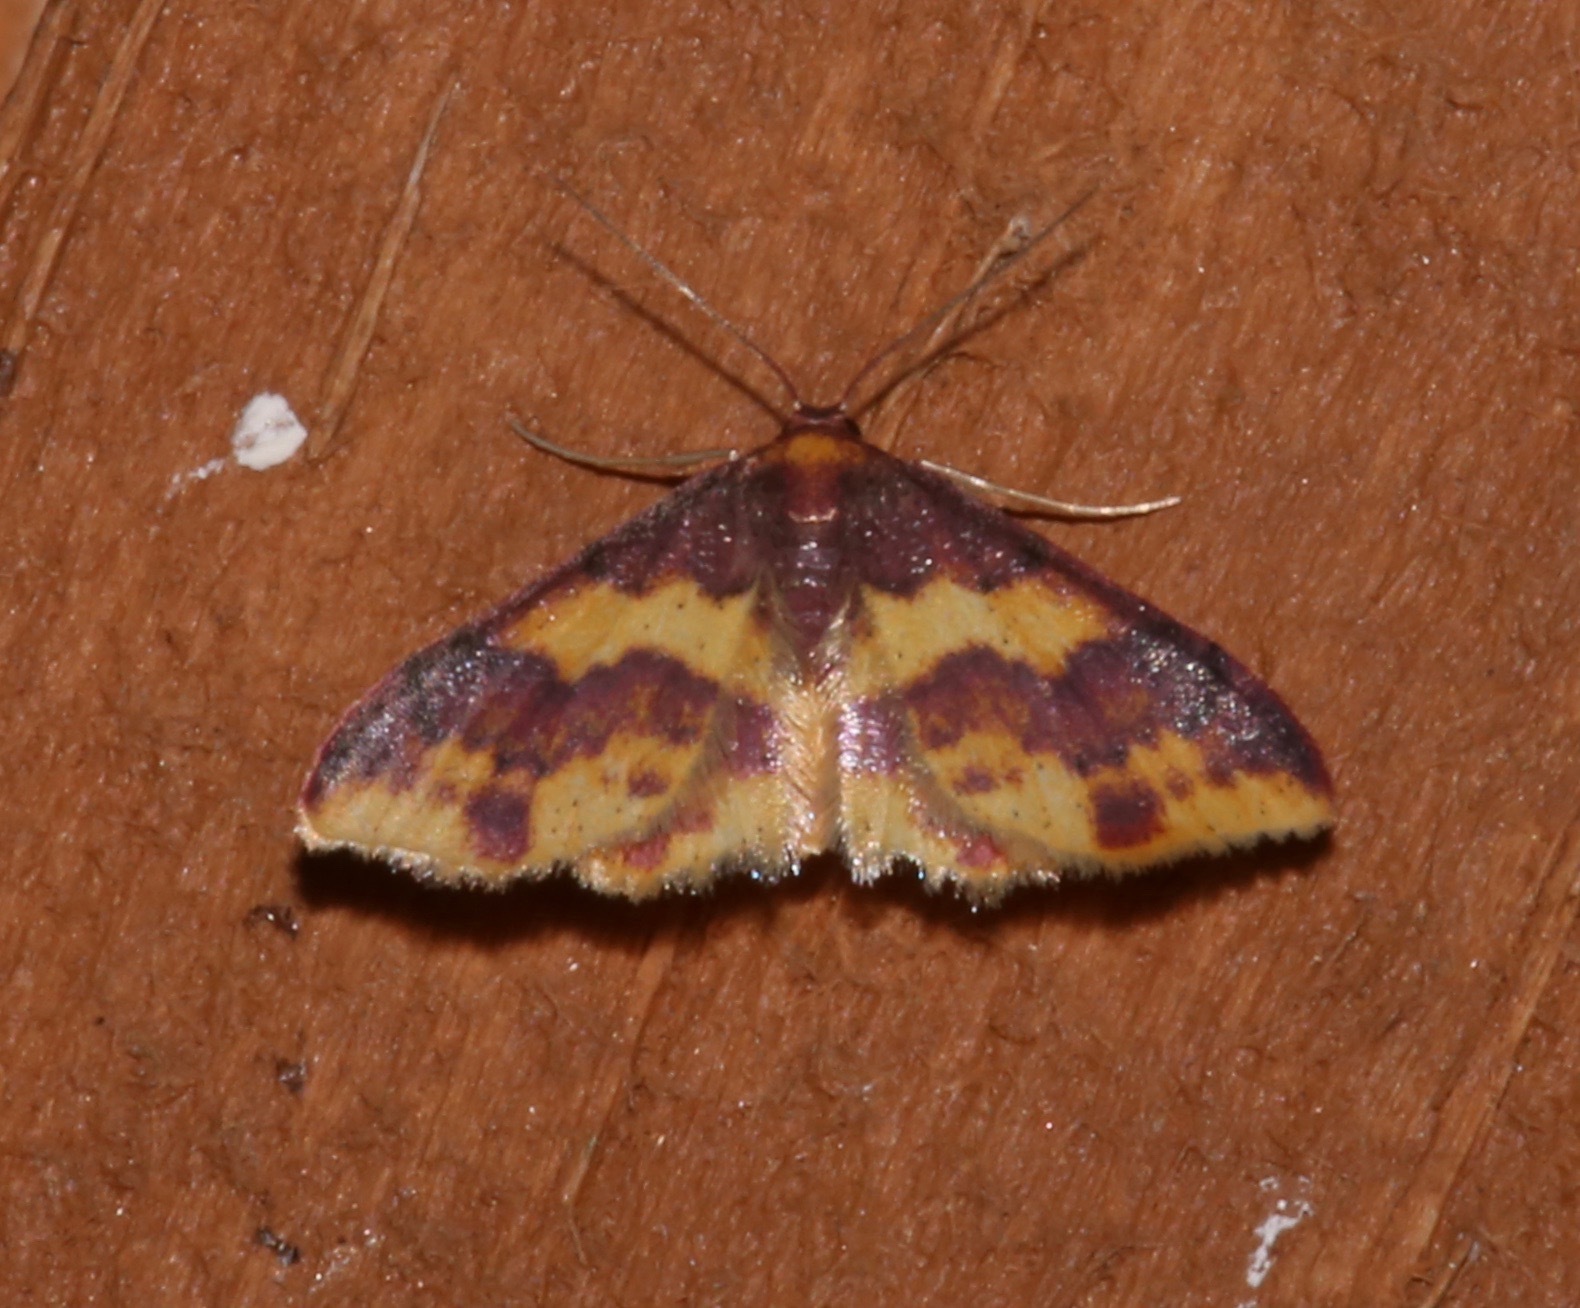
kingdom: Animalia
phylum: Arthropoda
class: Insecta
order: Lepidoptera
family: Geometridae
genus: Lophosis
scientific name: Lophosis labeculata
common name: Stained lophosis moth
